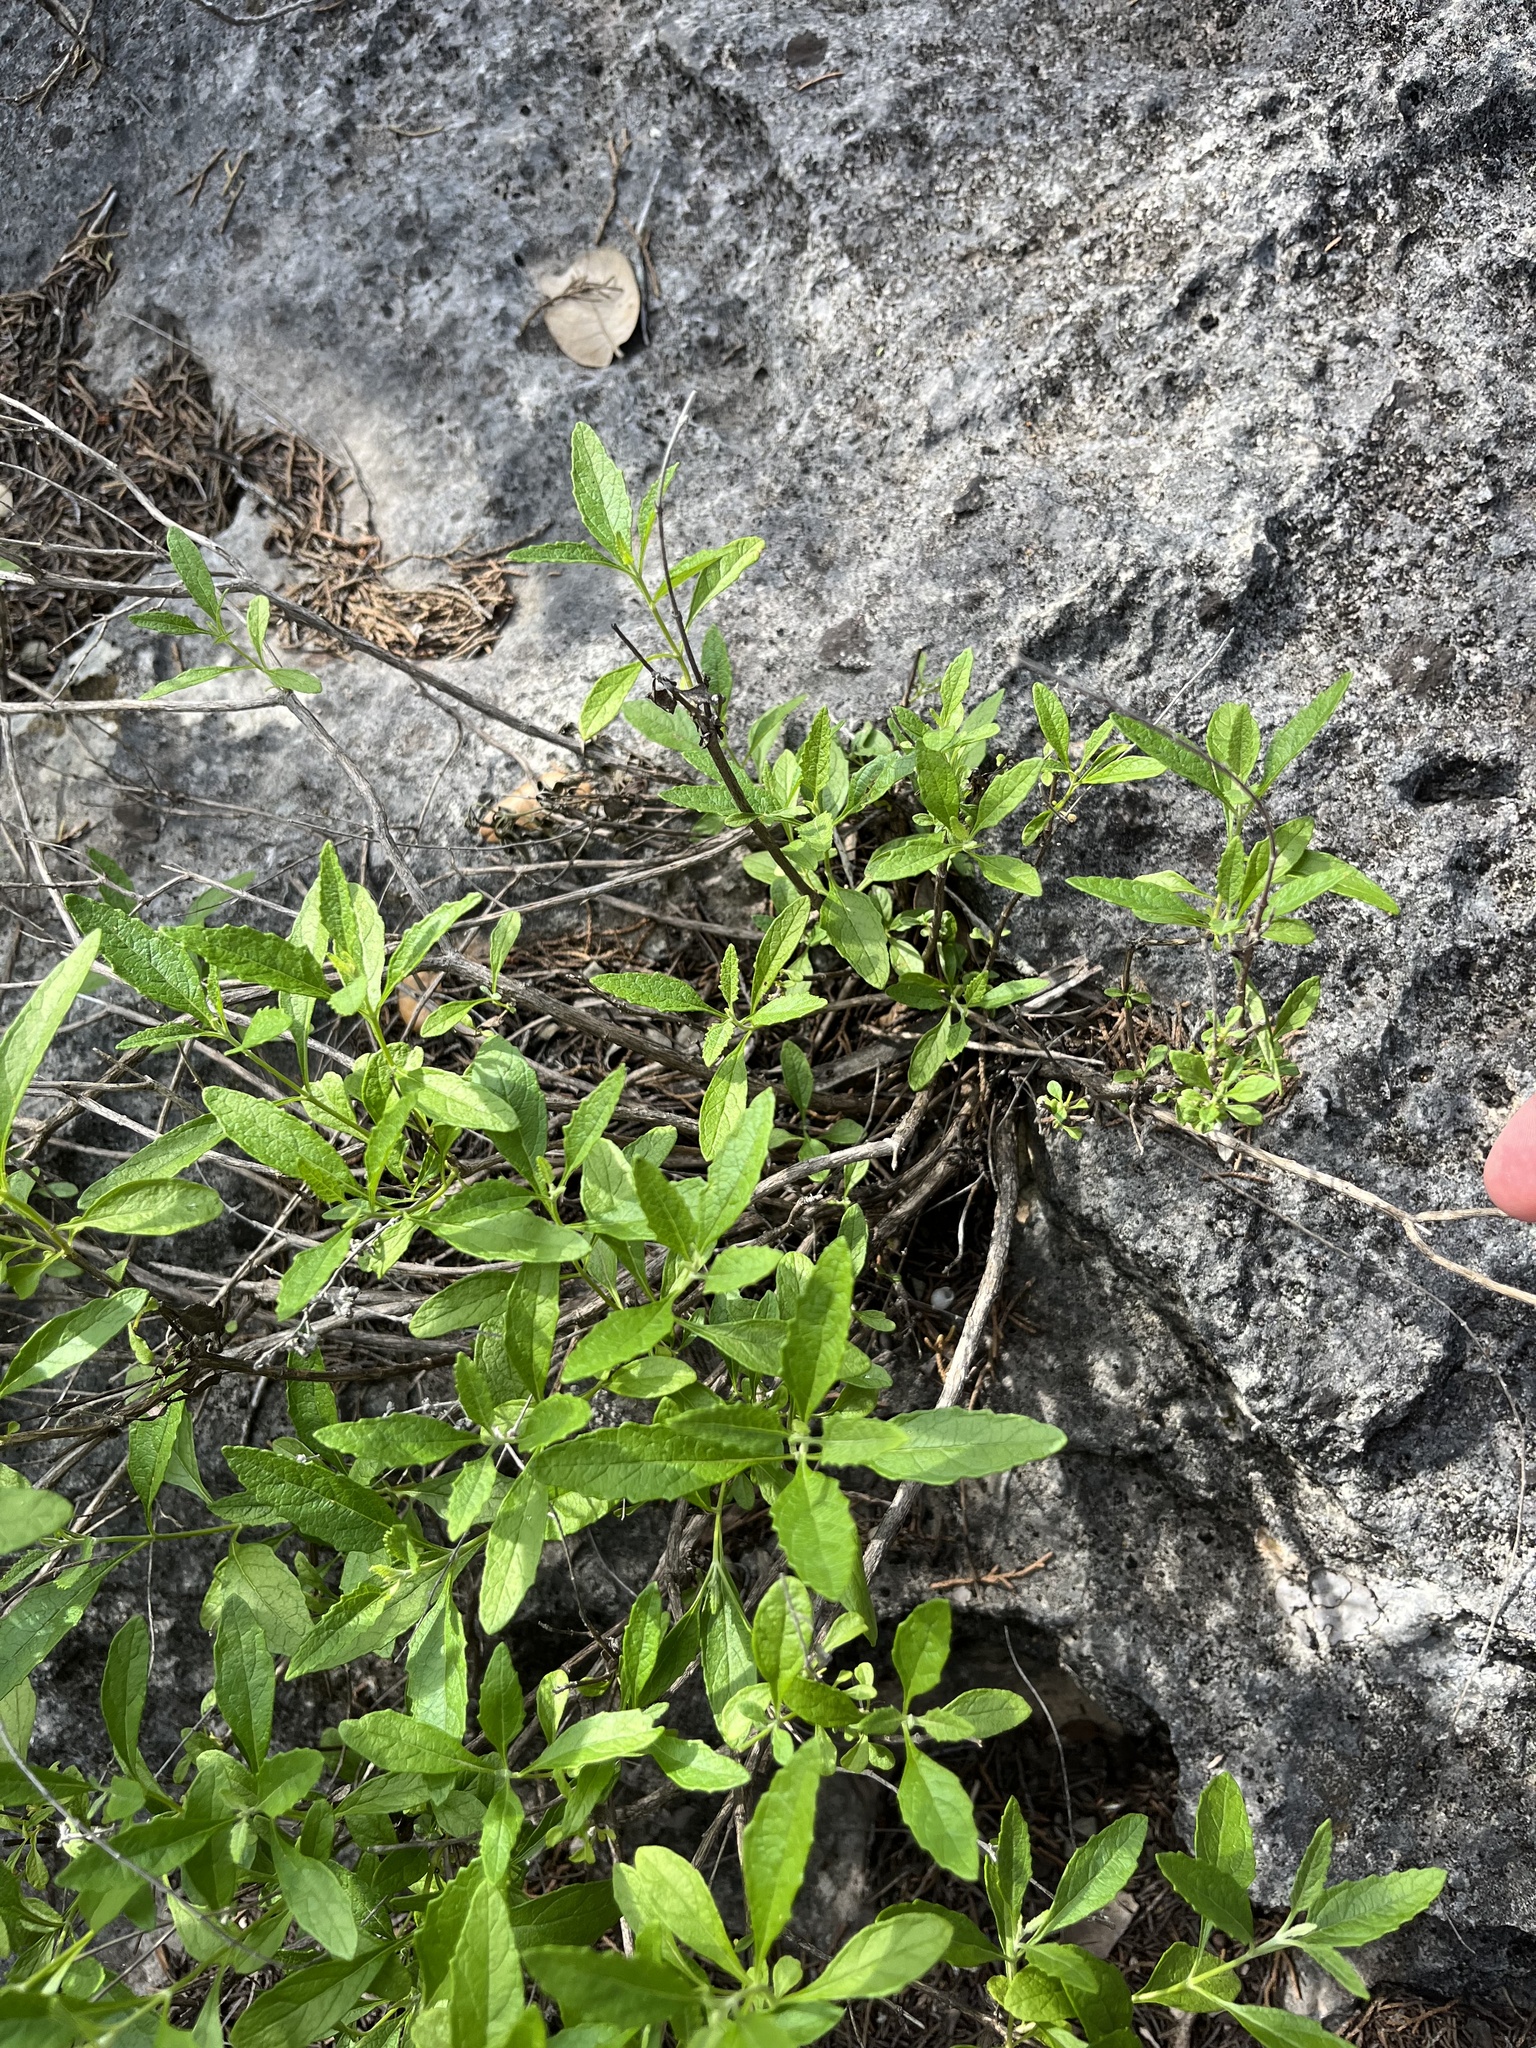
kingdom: Plantae
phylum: Tracheophyta
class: Magnoliopsida
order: Lamiales
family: Scrophulariaceae
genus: Buddleja
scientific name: Buddleja racemosa
